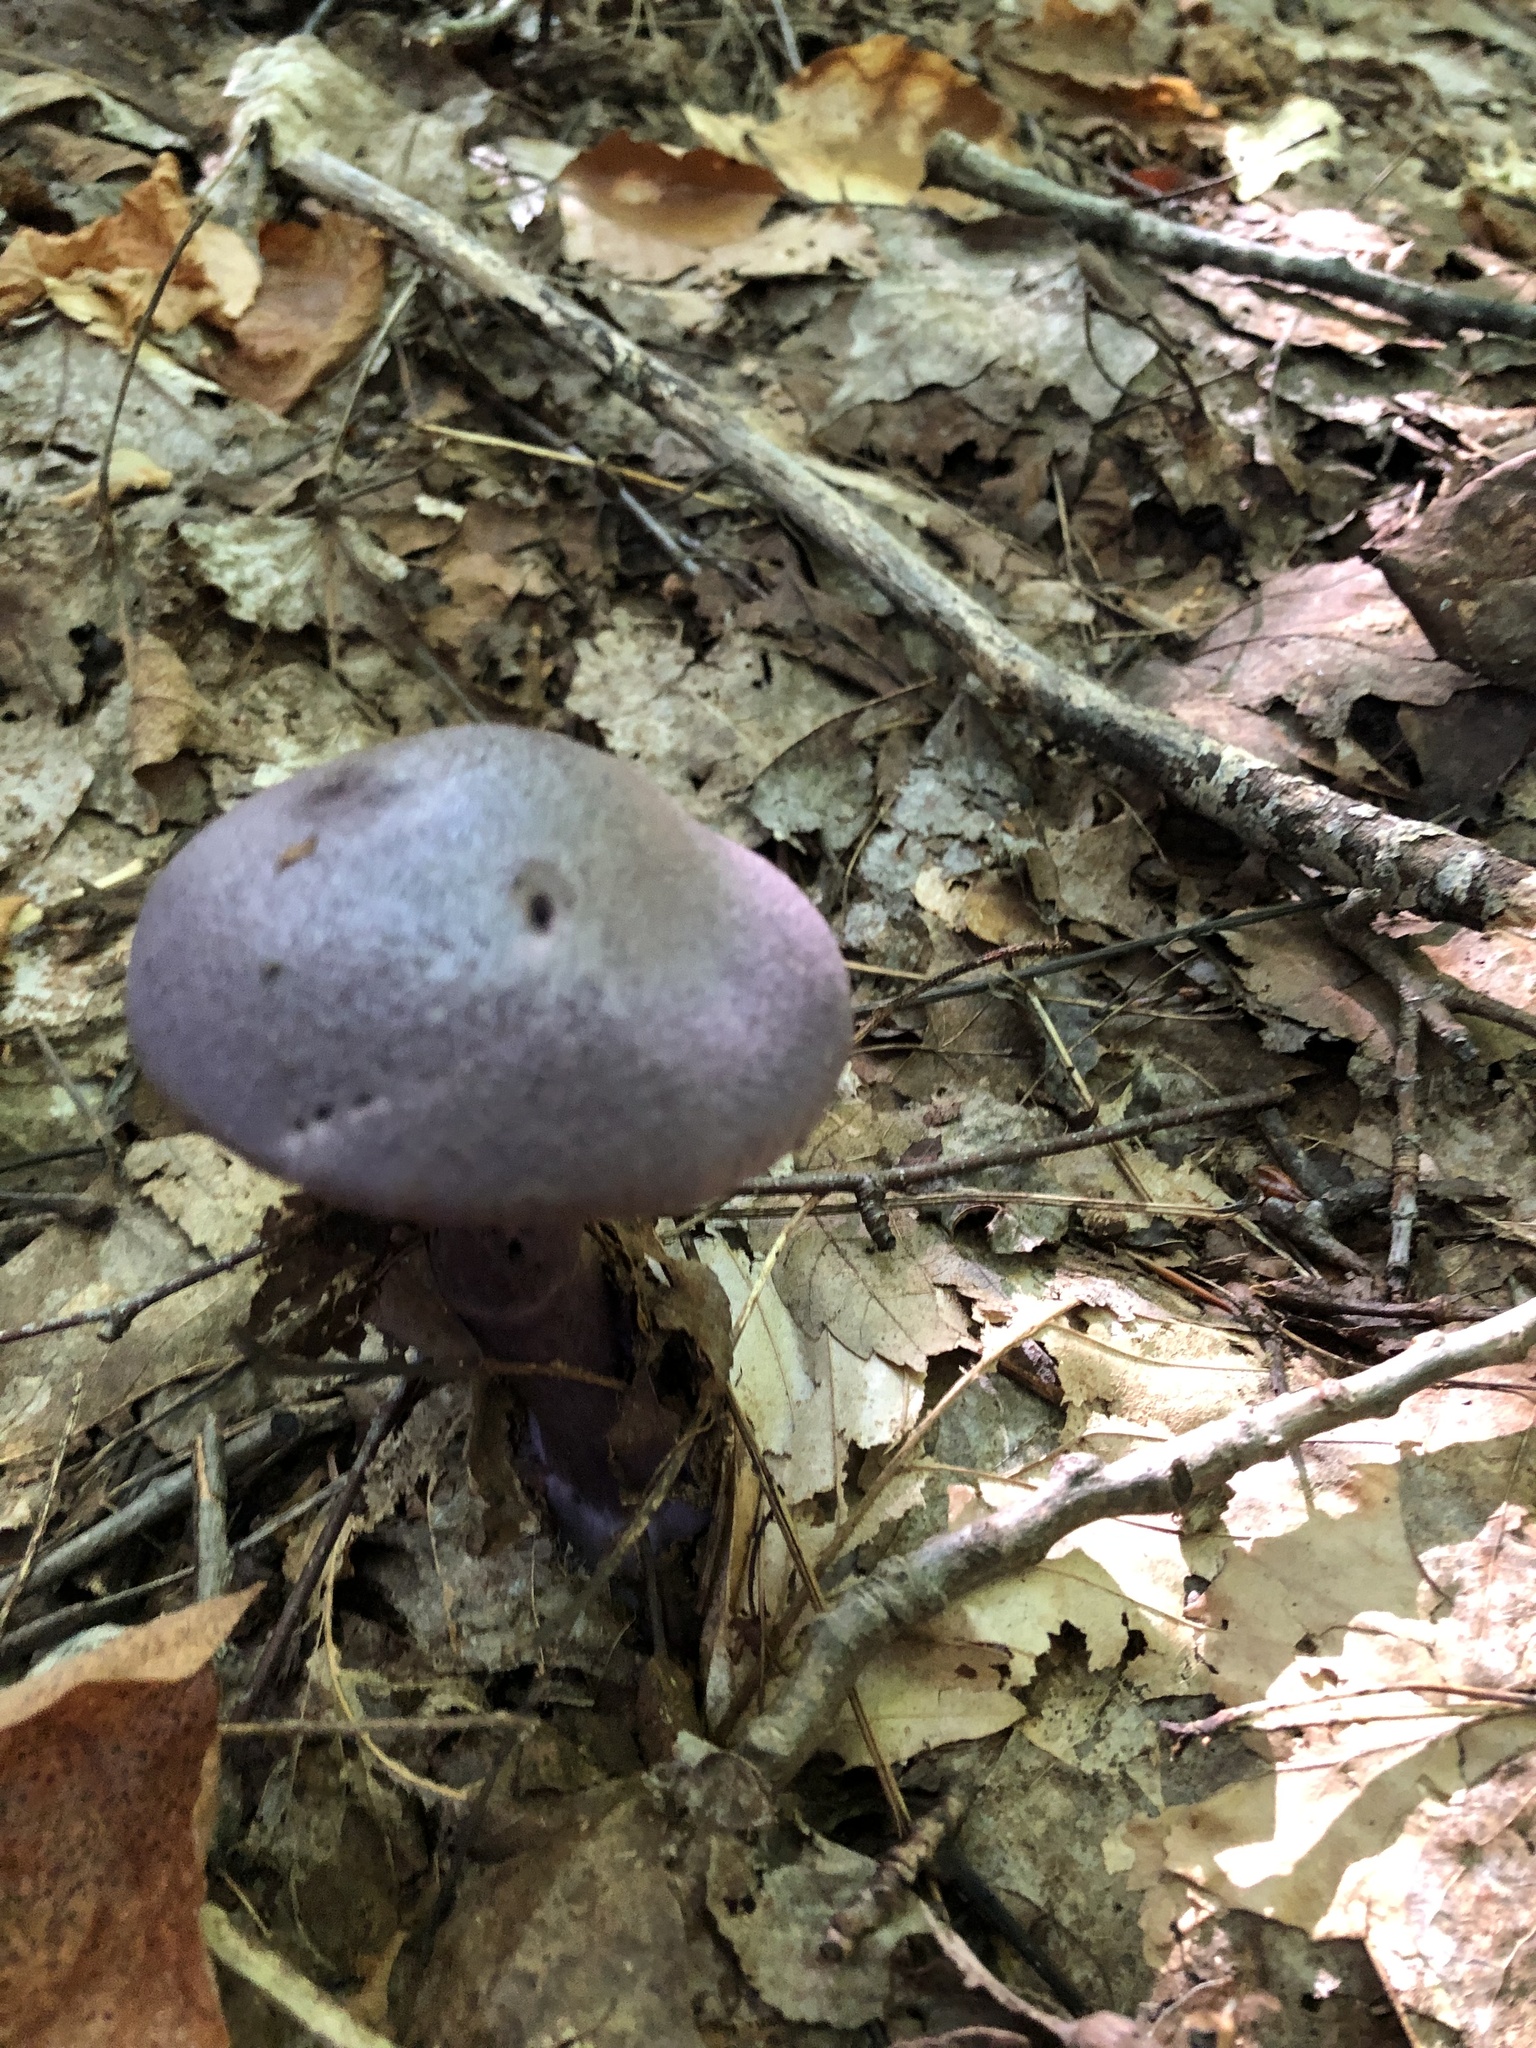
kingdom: Fungi
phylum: Basidiomycota
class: Agaricomycetes
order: Agaricales
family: Cortinariaceae
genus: Cortinarius
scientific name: Cortinarius violaceus
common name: Violet webcap
